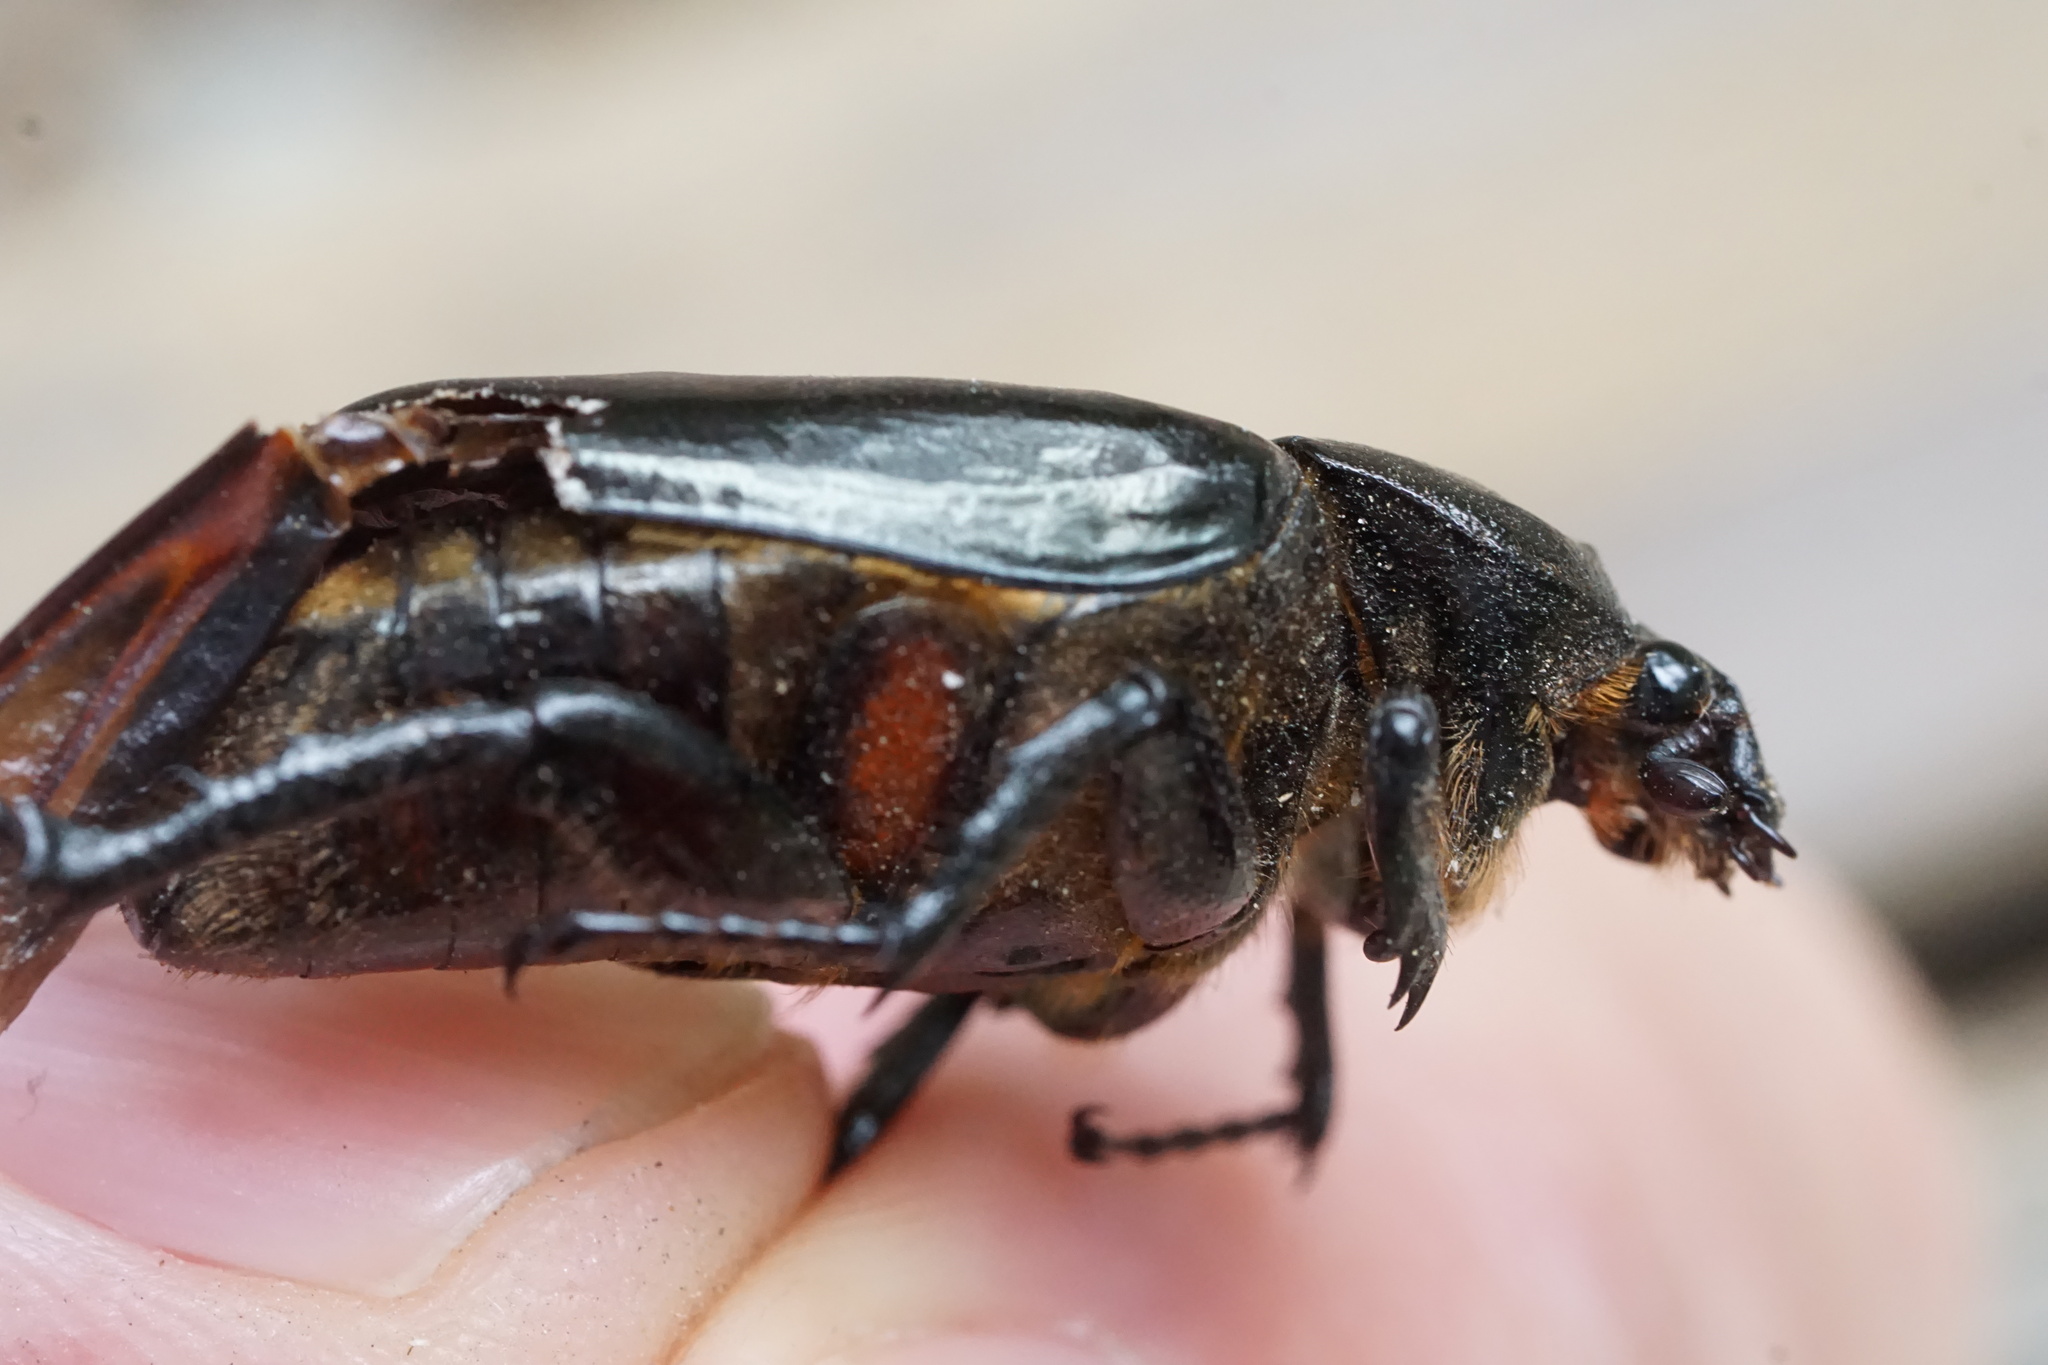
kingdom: Animalia
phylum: Arthropoda
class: Insecta
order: Coleoptera
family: Scarabaeidae
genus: Osmoderma
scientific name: Osmoderma eremicola
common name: Hermit flower beetle
